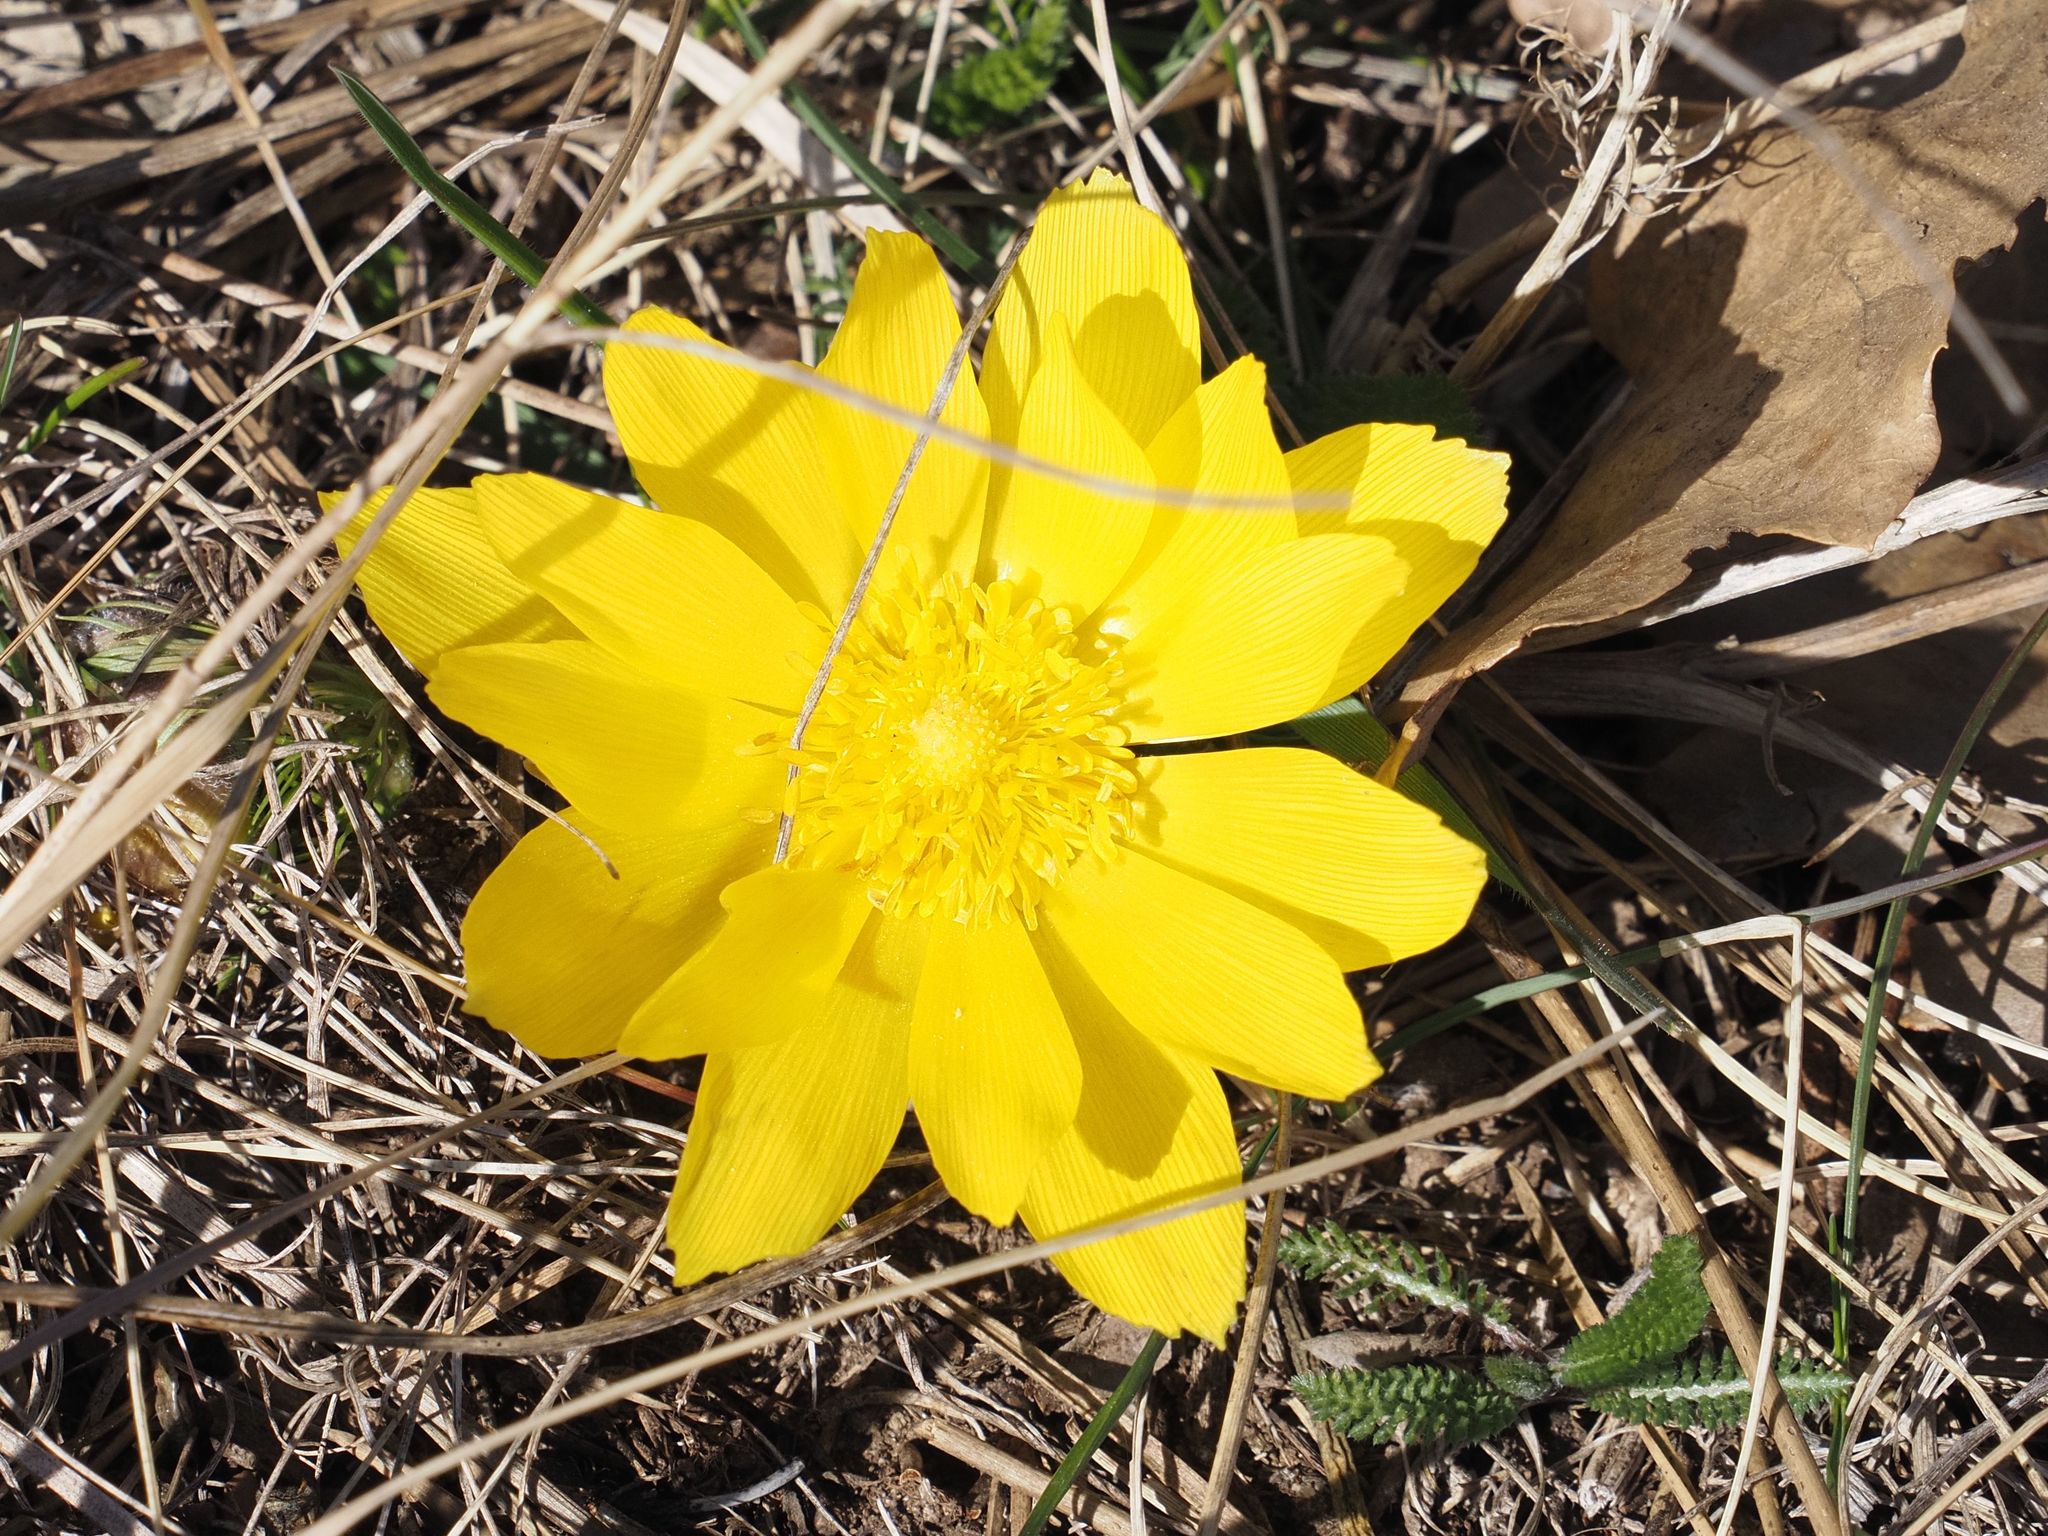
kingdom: Plantae
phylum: Tracheophyta
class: Magnoliopsida
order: Ranunculales
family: Ranunculaceae
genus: Adonis
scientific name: Adonis vernalis
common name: Yellow pheasants-eye
